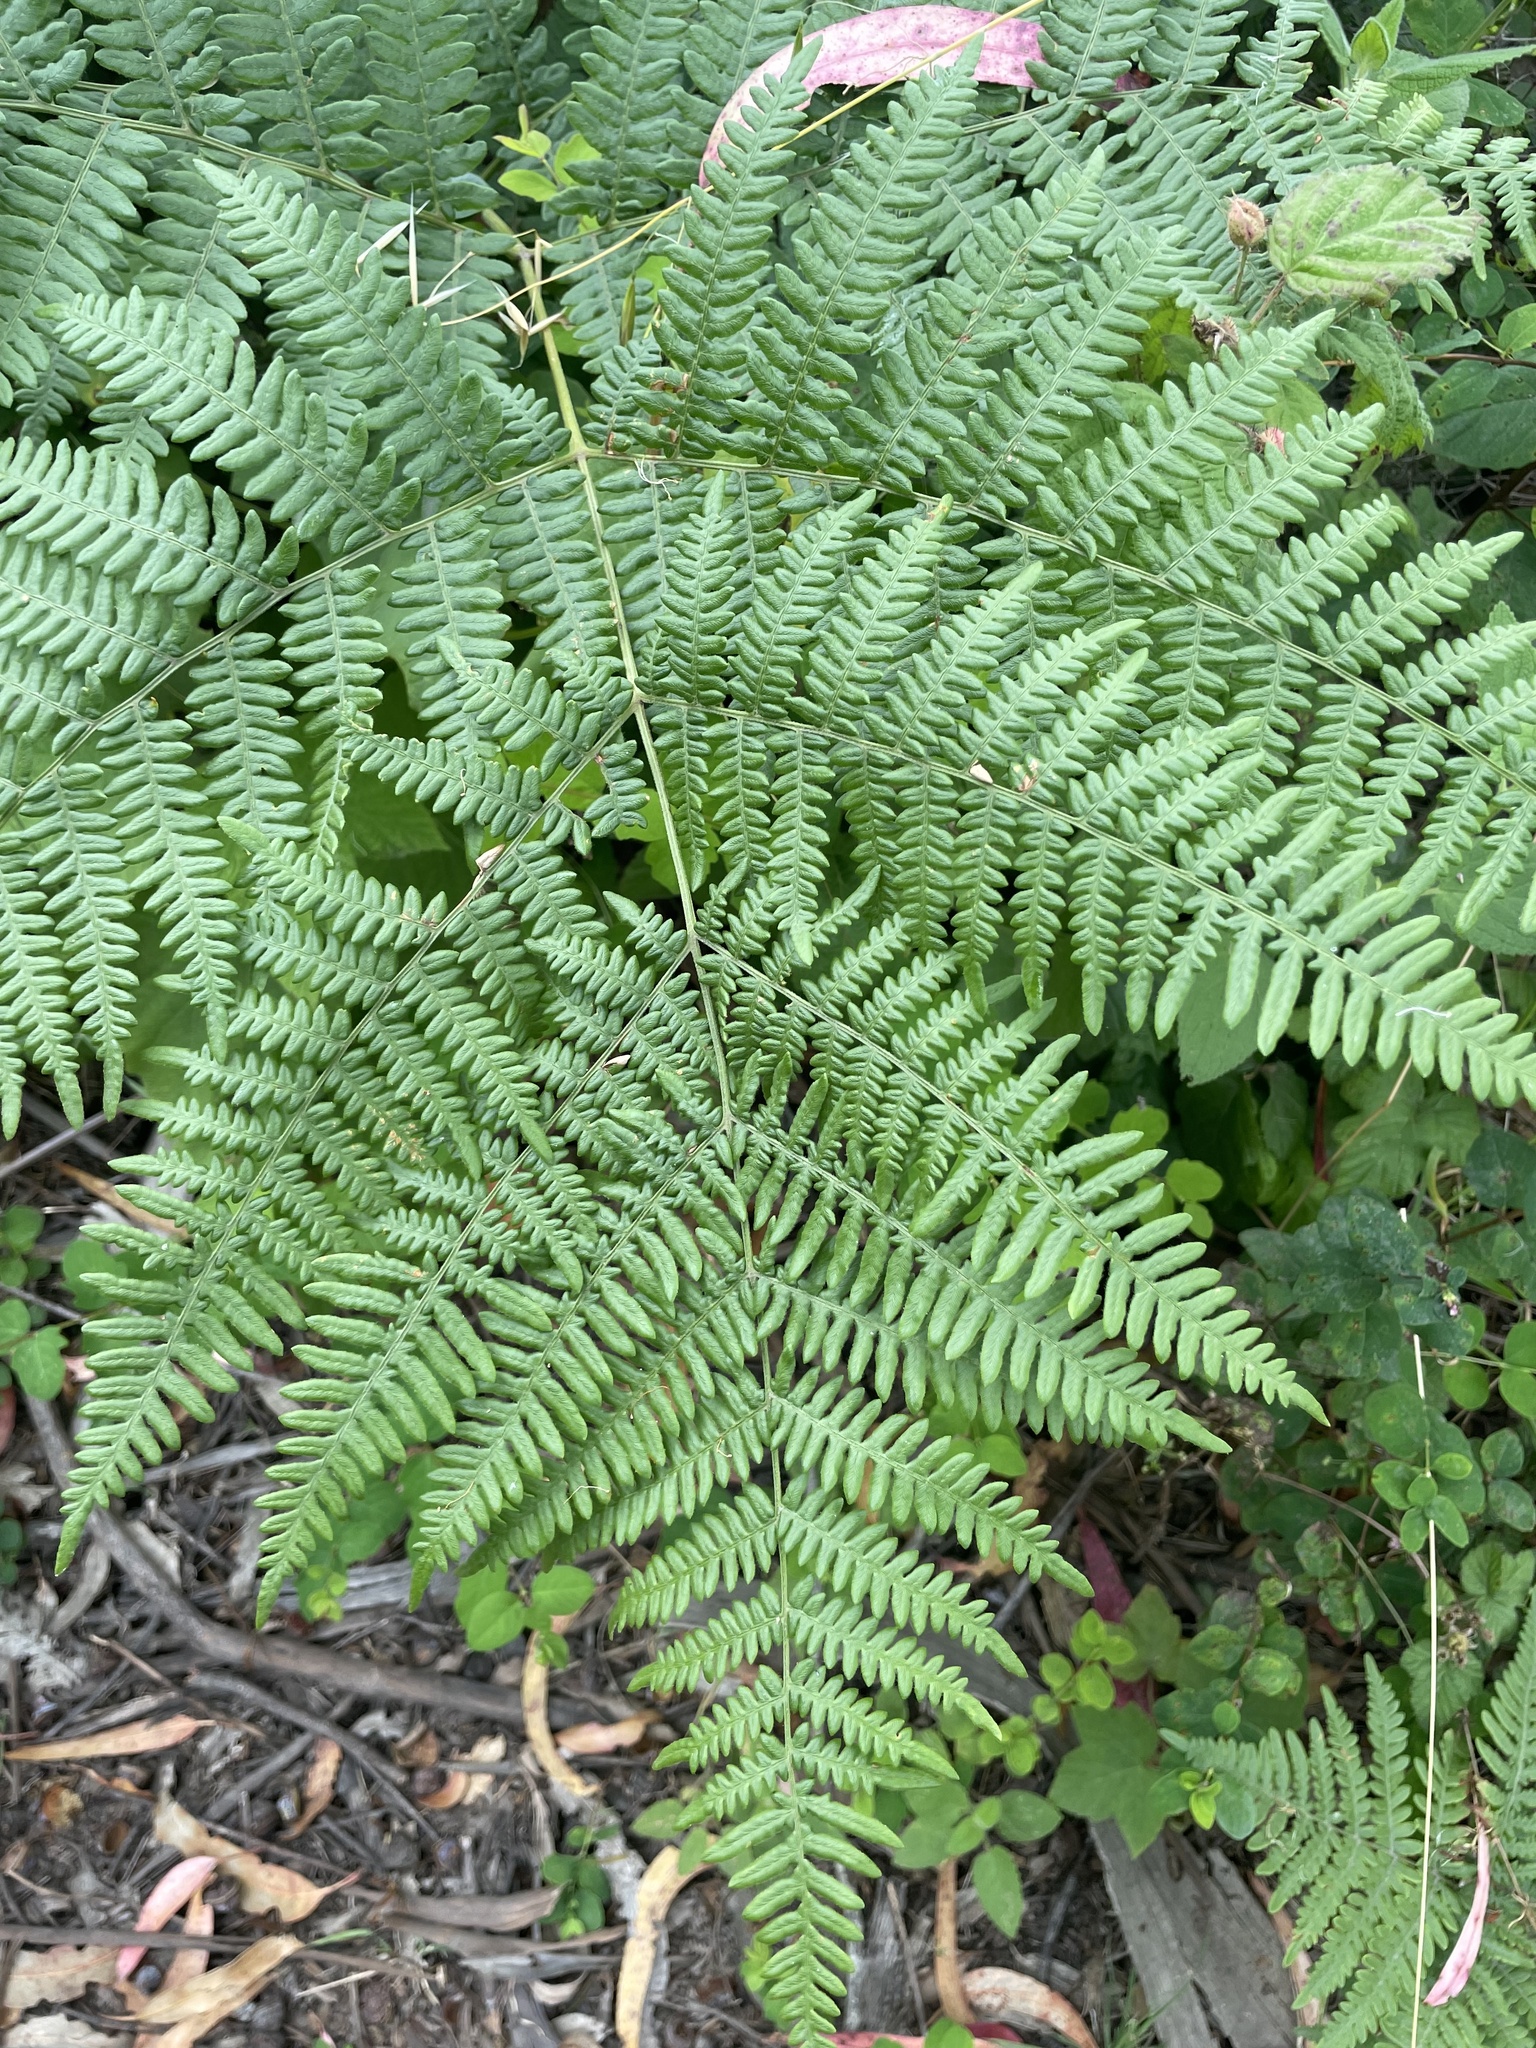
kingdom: Plantae
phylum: Tracheophyta
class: Polypodiopsida
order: Polypodiales
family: Dennstaedtiaceae
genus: Pteridium
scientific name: Pteridium aquilinum
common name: Bracken
